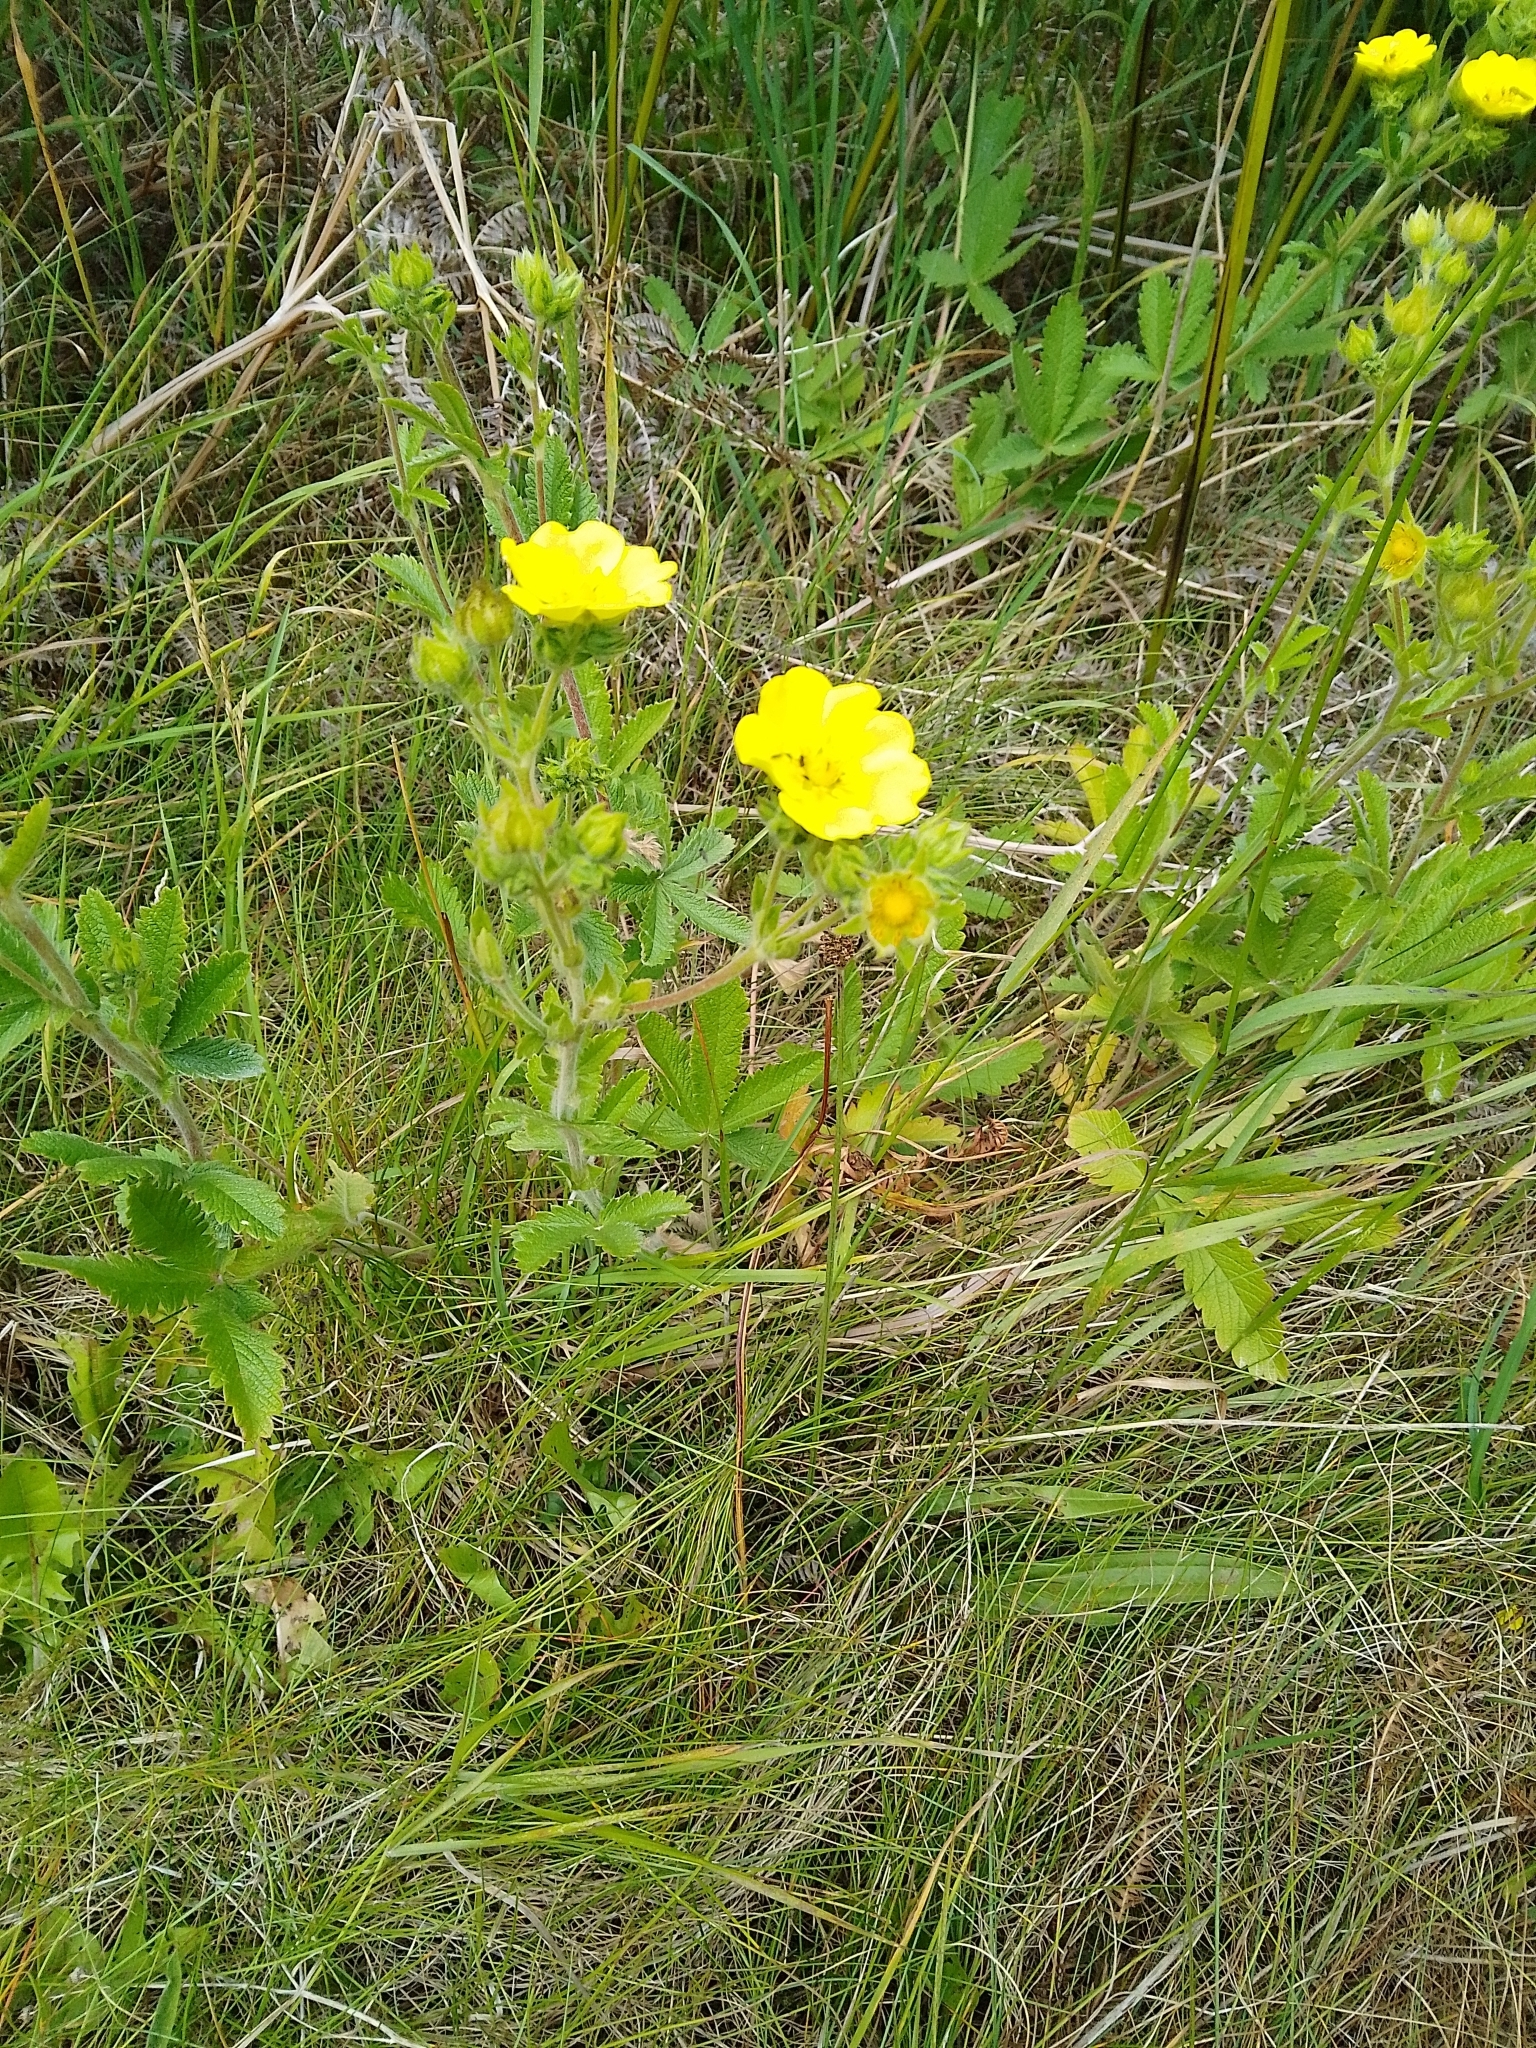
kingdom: Plantae
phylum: Tracheophyta
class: Magnoliopsida
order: Rosales
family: Rosaceae
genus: Potentilla
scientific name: Potentilla recta
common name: Sulphur cinquefoil
